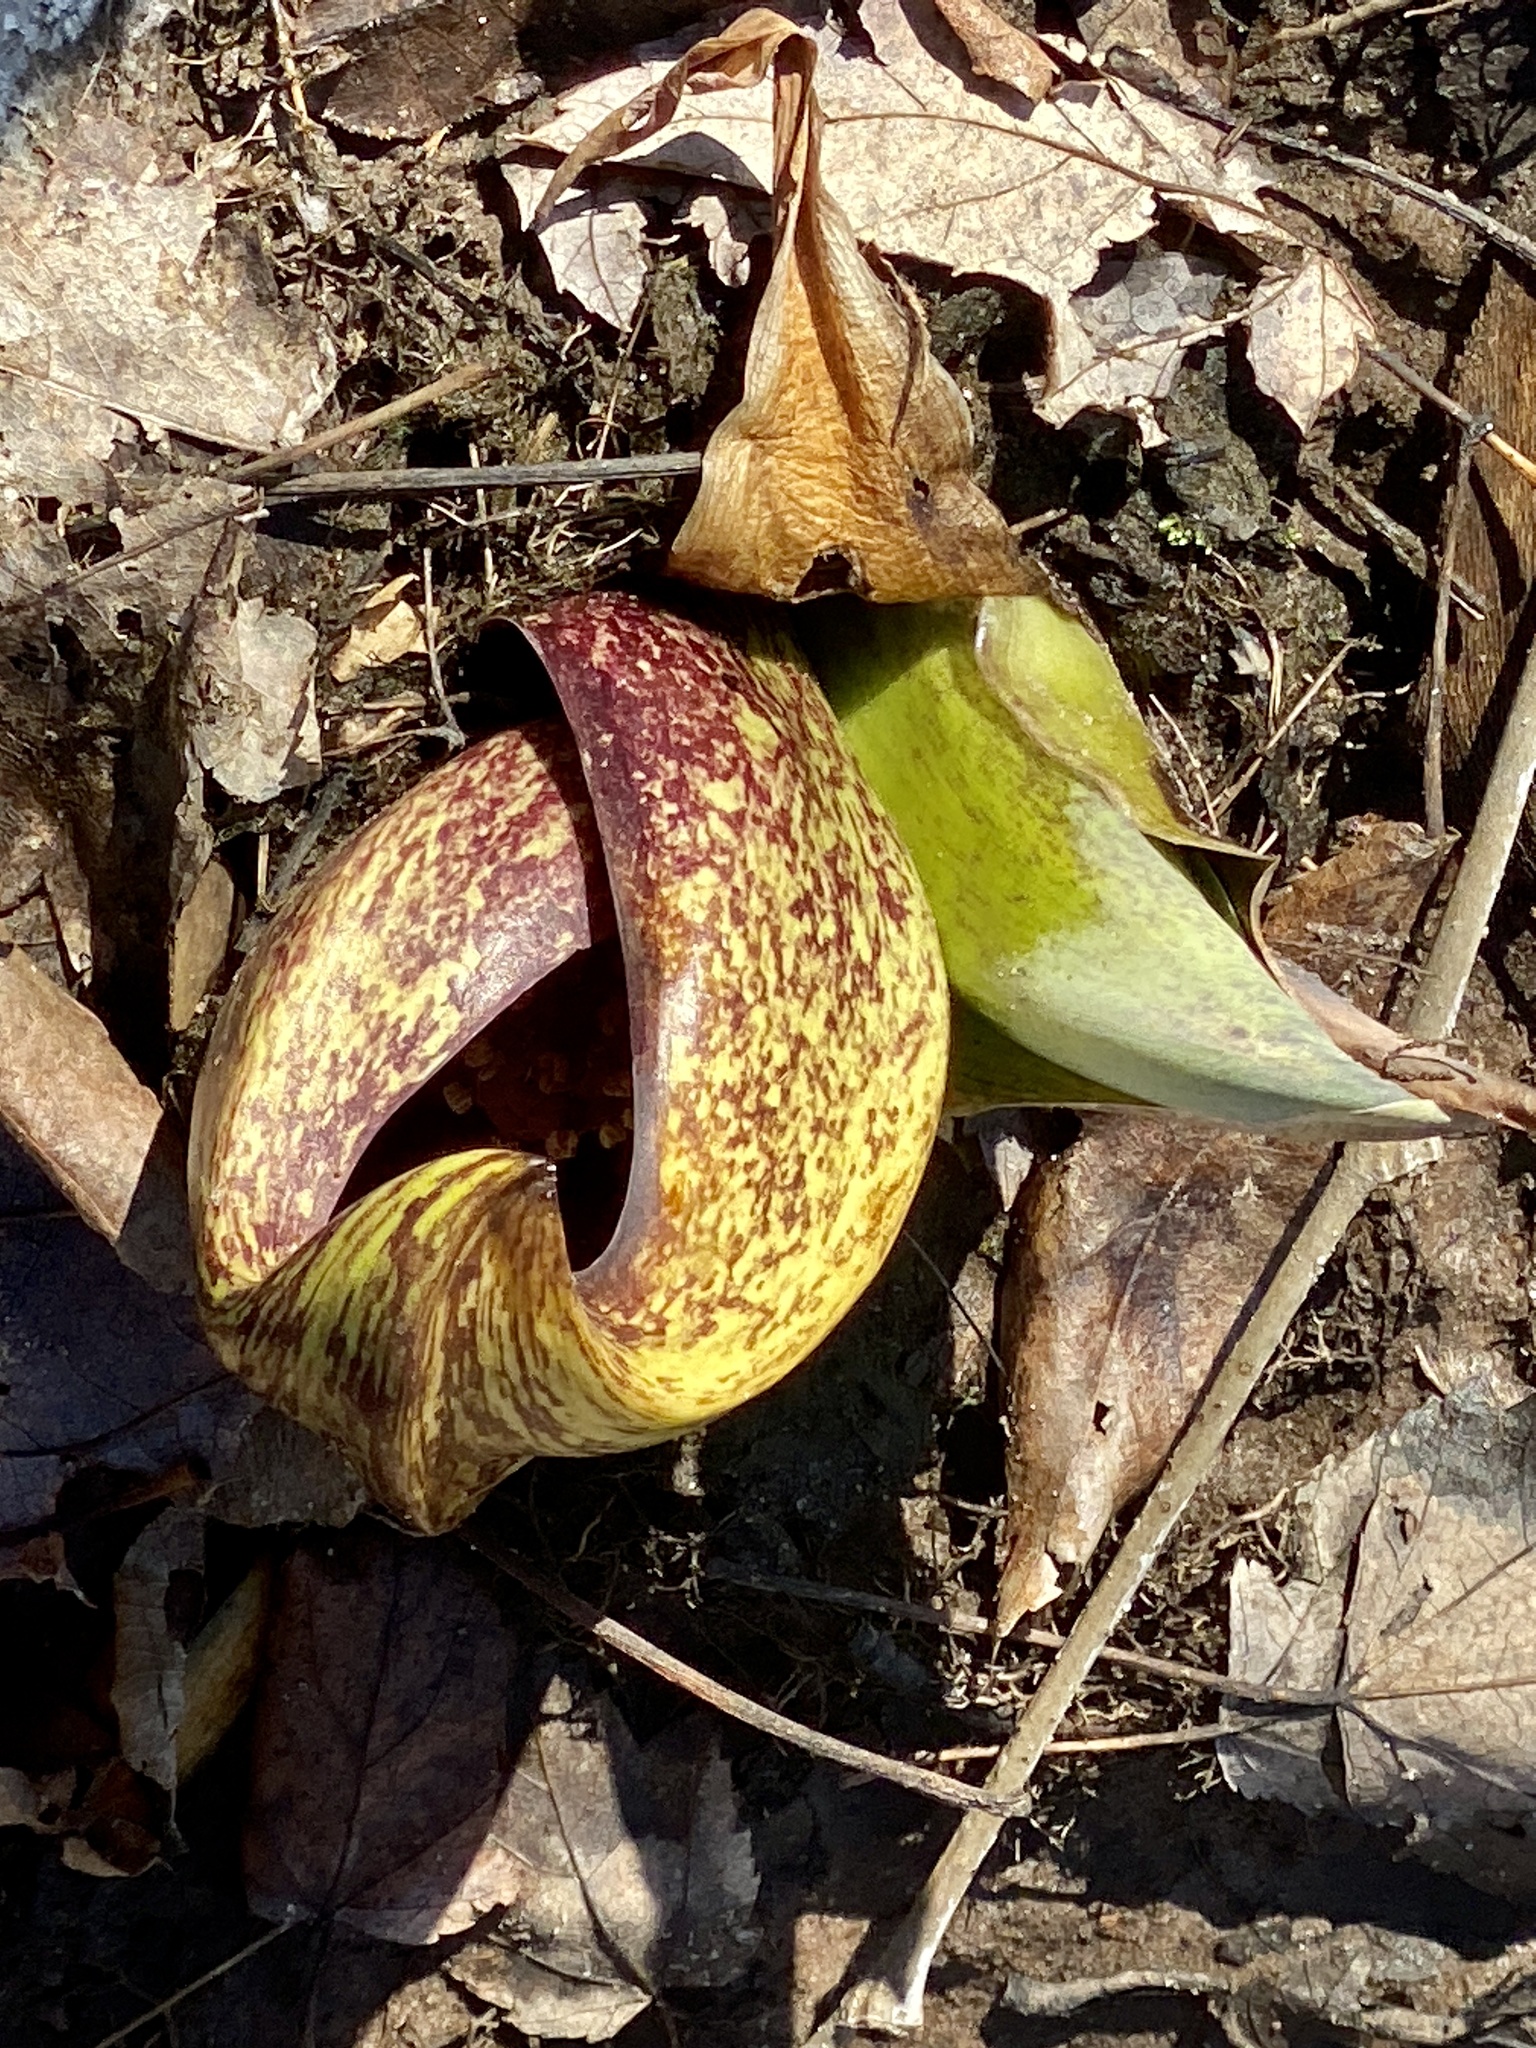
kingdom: Plantae
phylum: Tracheophyta
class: Liliopsida
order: Alismatales
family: Araceae
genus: Symplocarpus
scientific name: Symplocarpus foetidus
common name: Eastern skunk cabbage
